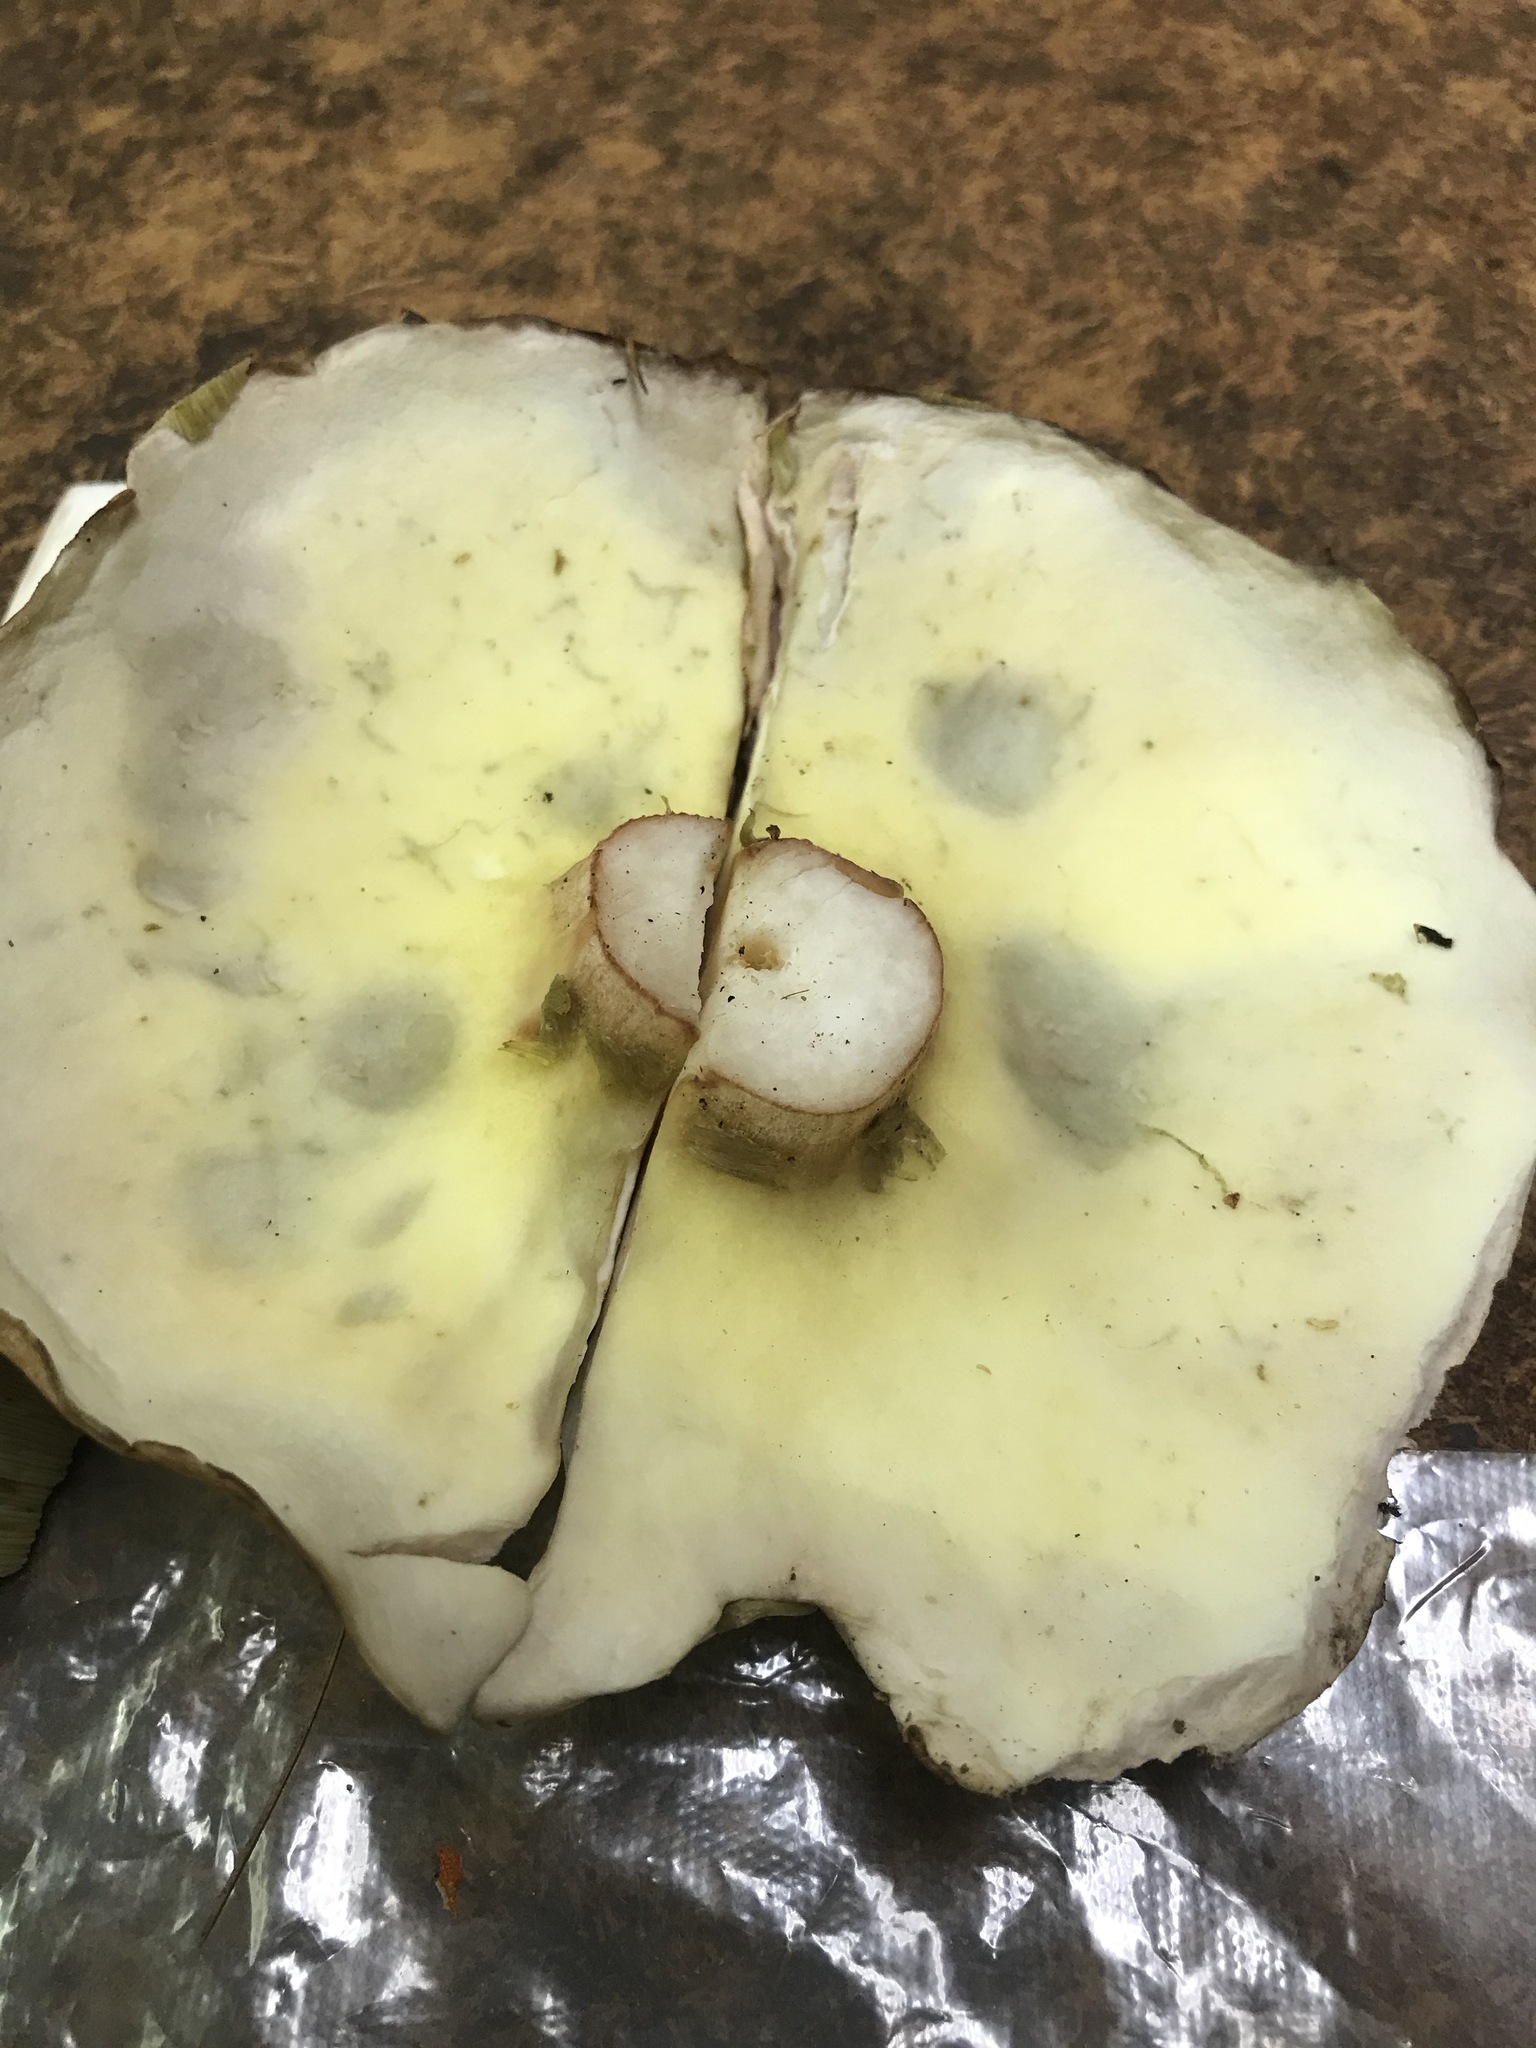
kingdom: Fungi
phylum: Basidiomycota
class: Agaricomycetes
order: Boletales
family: Boletaceae
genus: Boletus
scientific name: Boletus subcaerulescens
